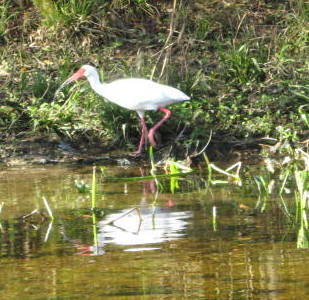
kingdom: Animalia
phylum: Chordata
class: Aves
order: Pelecaniformes
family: Threskiornithidae
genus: Eudocimus
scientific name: Eudocimus albus
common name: White ibis
